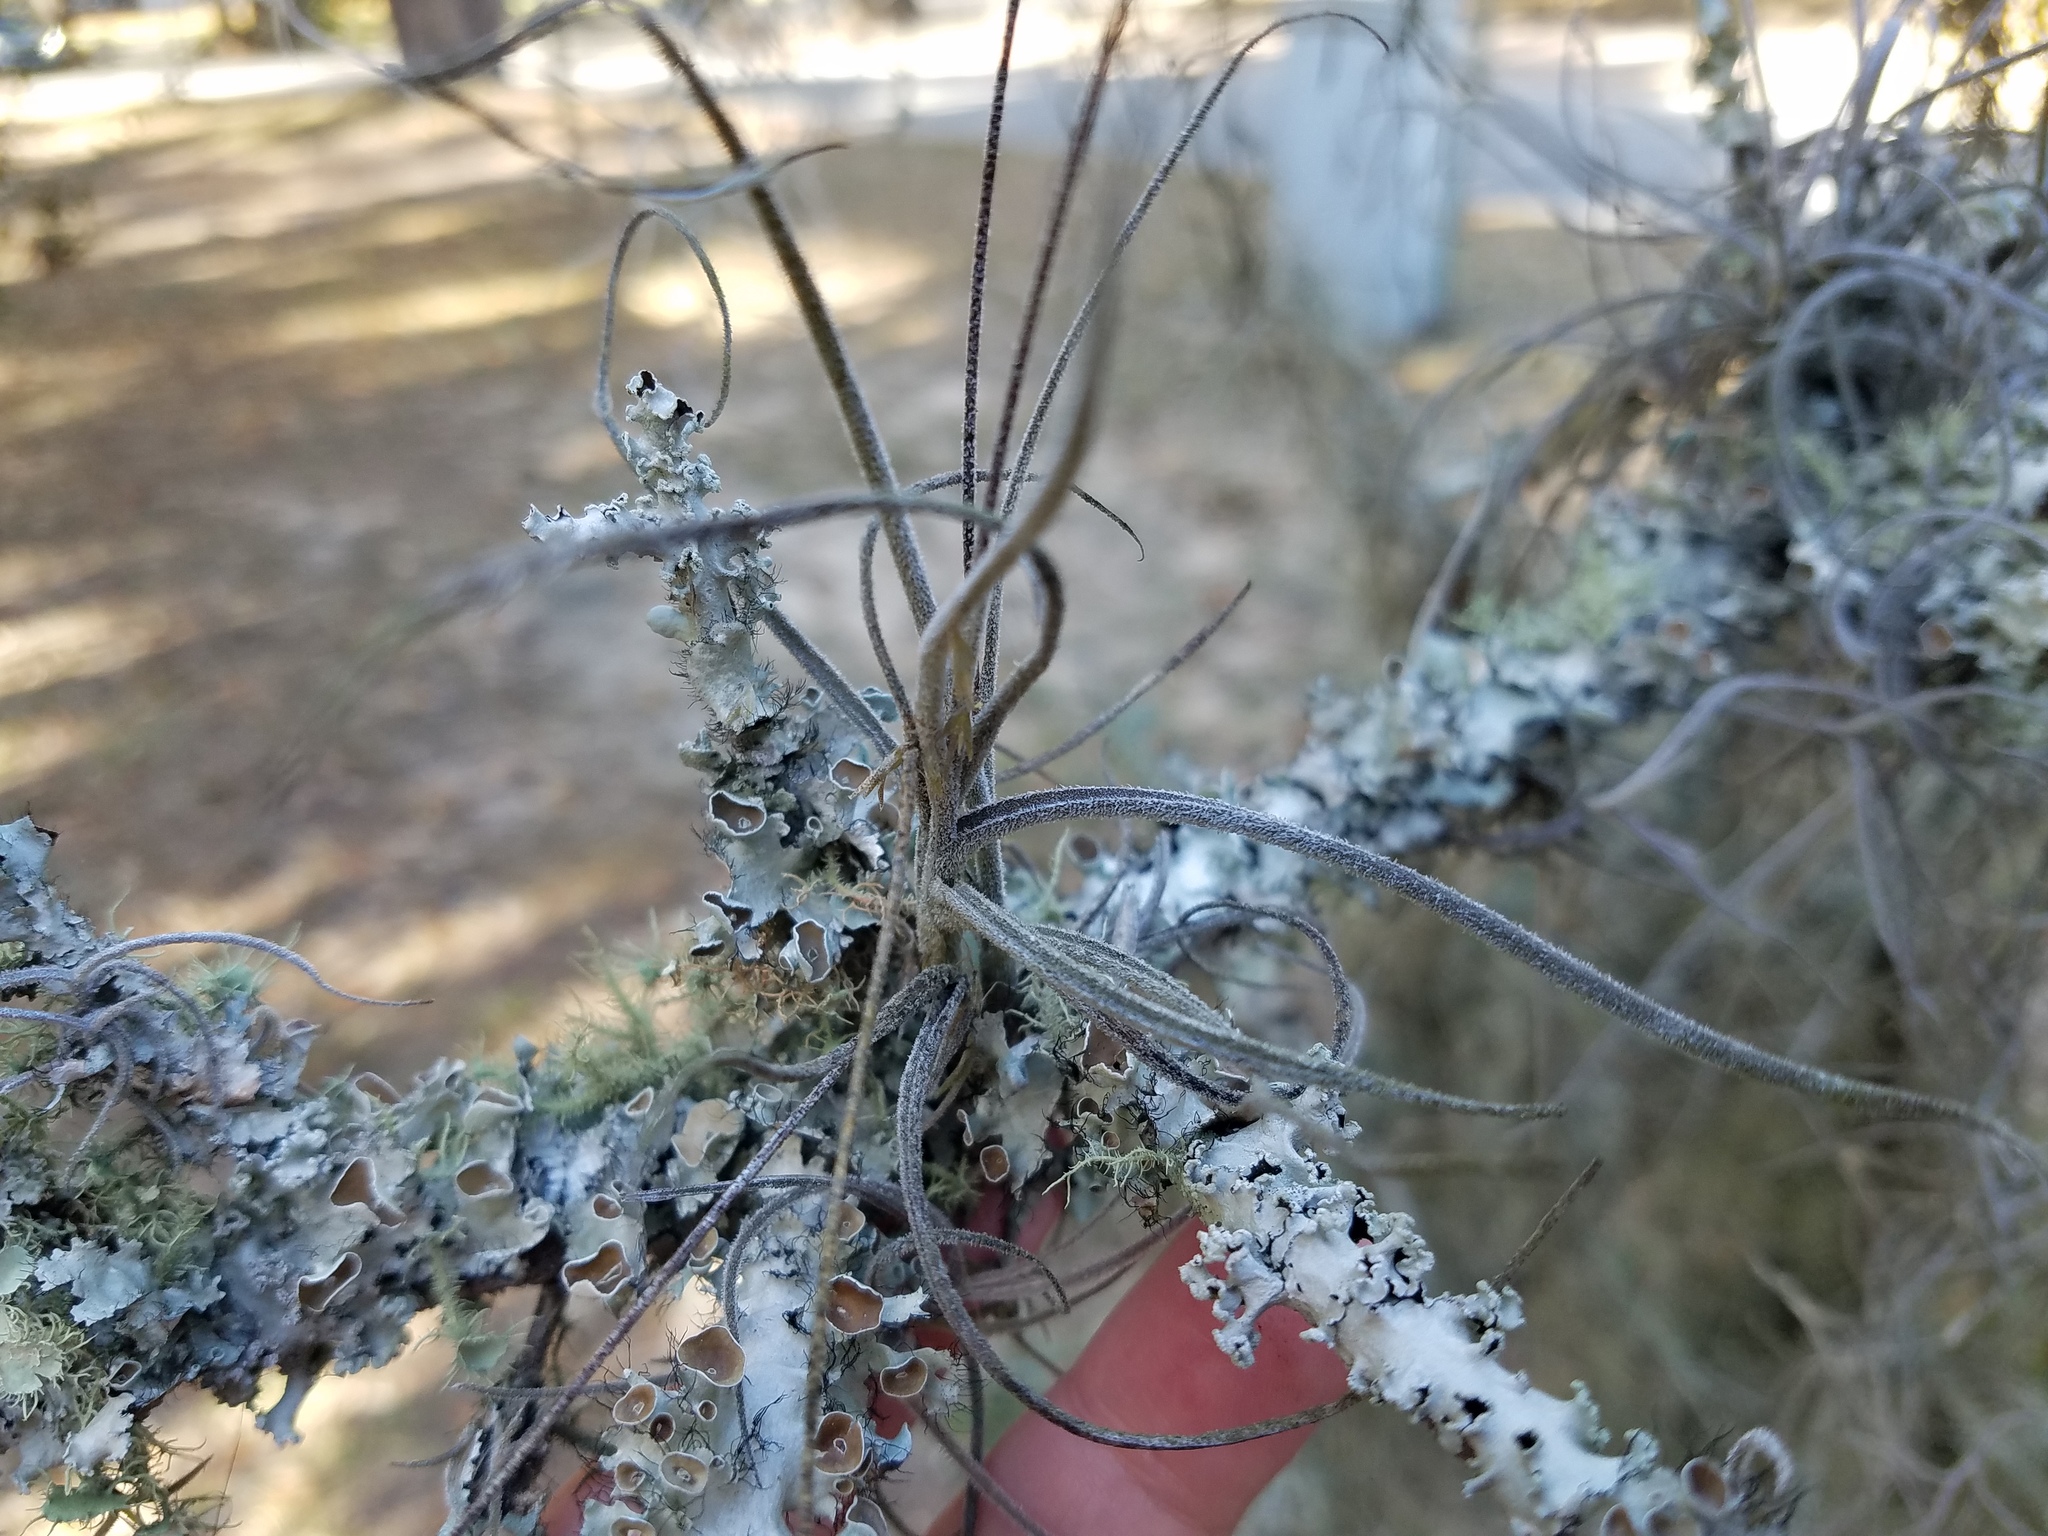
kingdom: Plantae
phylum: Tracheophyta
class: Liliopsida
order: Poales
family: Bromeliaceae
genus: Tillandsia
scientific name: Tillandsia recurvata
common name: Small ballmoss
